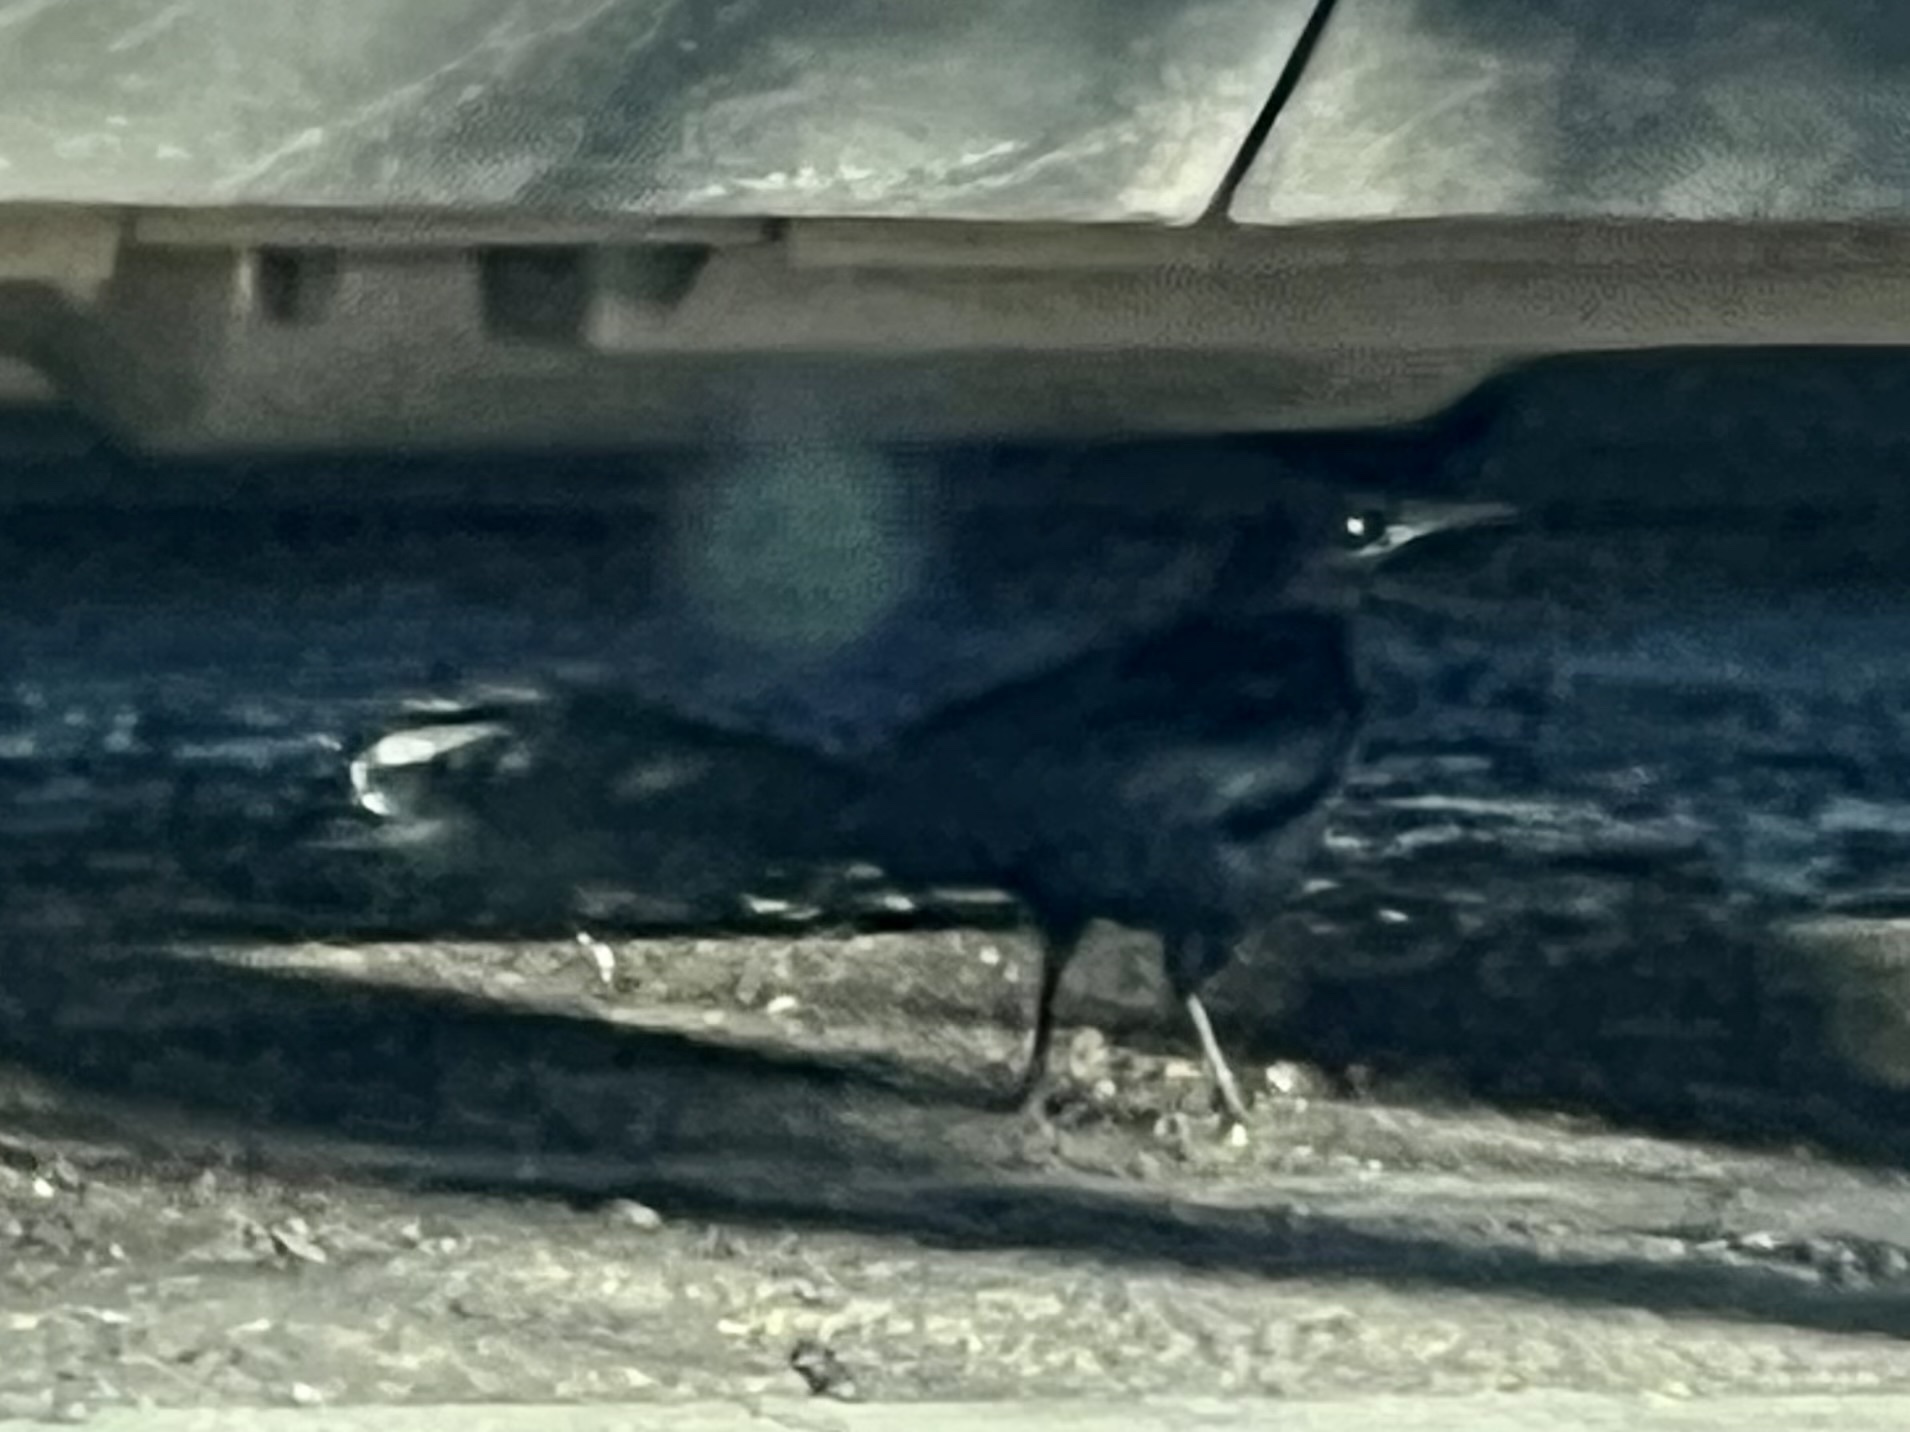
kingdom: Animalia
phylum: Chordata
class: Aves
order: Passeriformes
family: Icteridae
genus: Quiscalus
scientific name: Quiscalus mexicanus
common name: Great-tailed grackle
